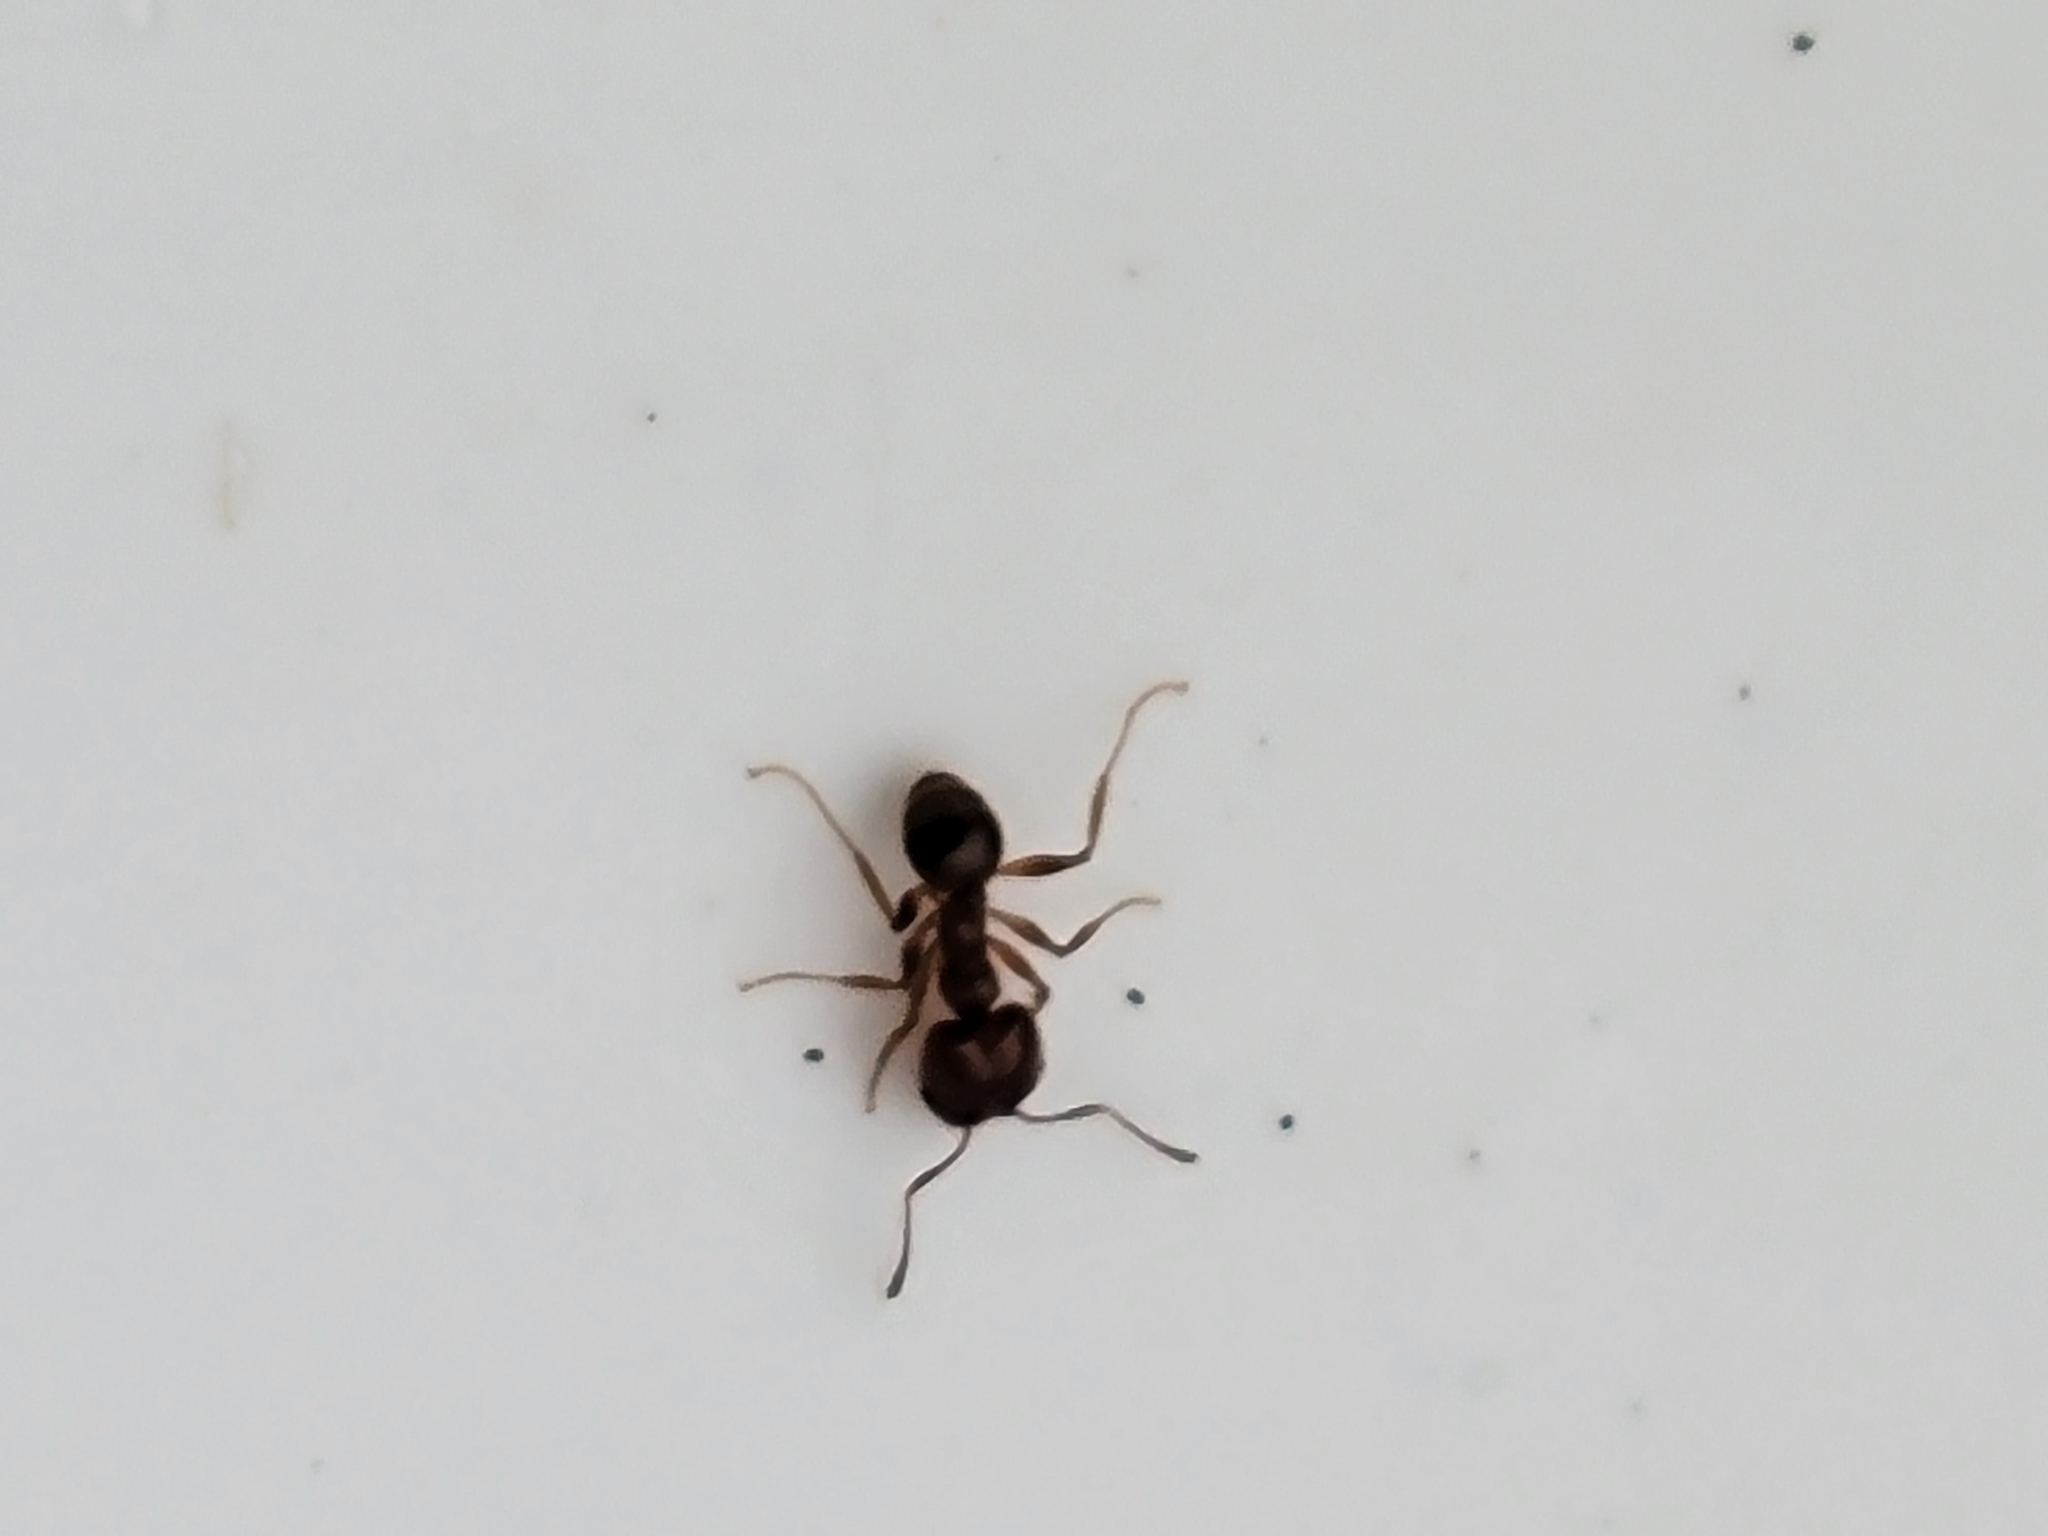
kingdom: Animalia
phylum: Arthropoda
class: Insecta
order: Hymenoptera
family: Formicidae
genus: Pheidole
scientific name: Pheidole dentata
